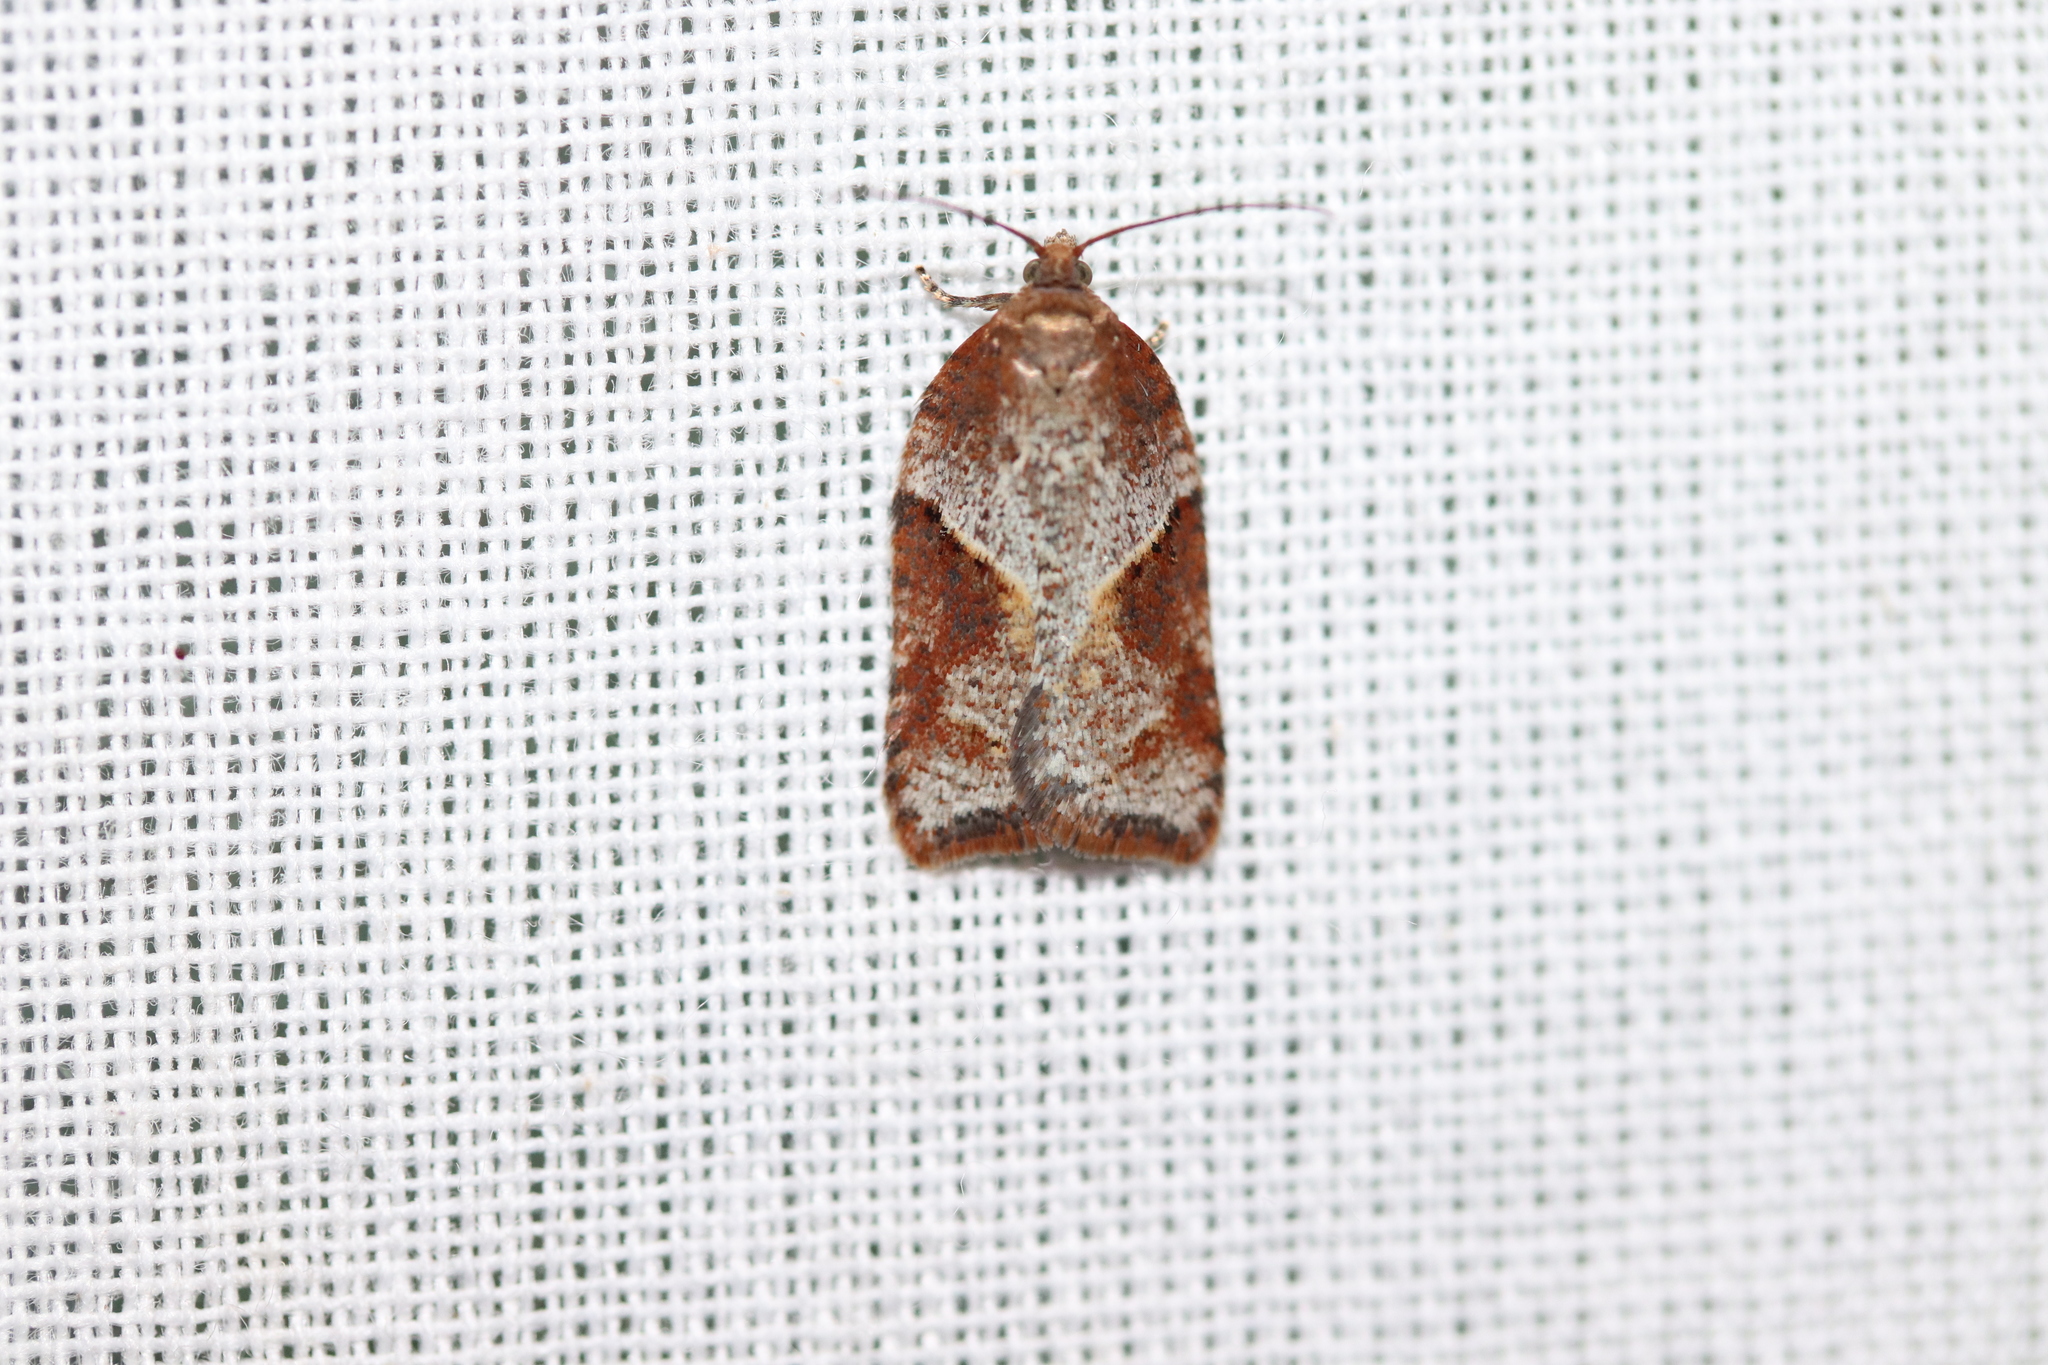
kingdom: Animalia
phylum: Arthropoda
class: Insecta
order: Lepidoptera
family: Tortricidae
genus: Acleris
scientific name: Acleris maccana
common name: Marbled button
